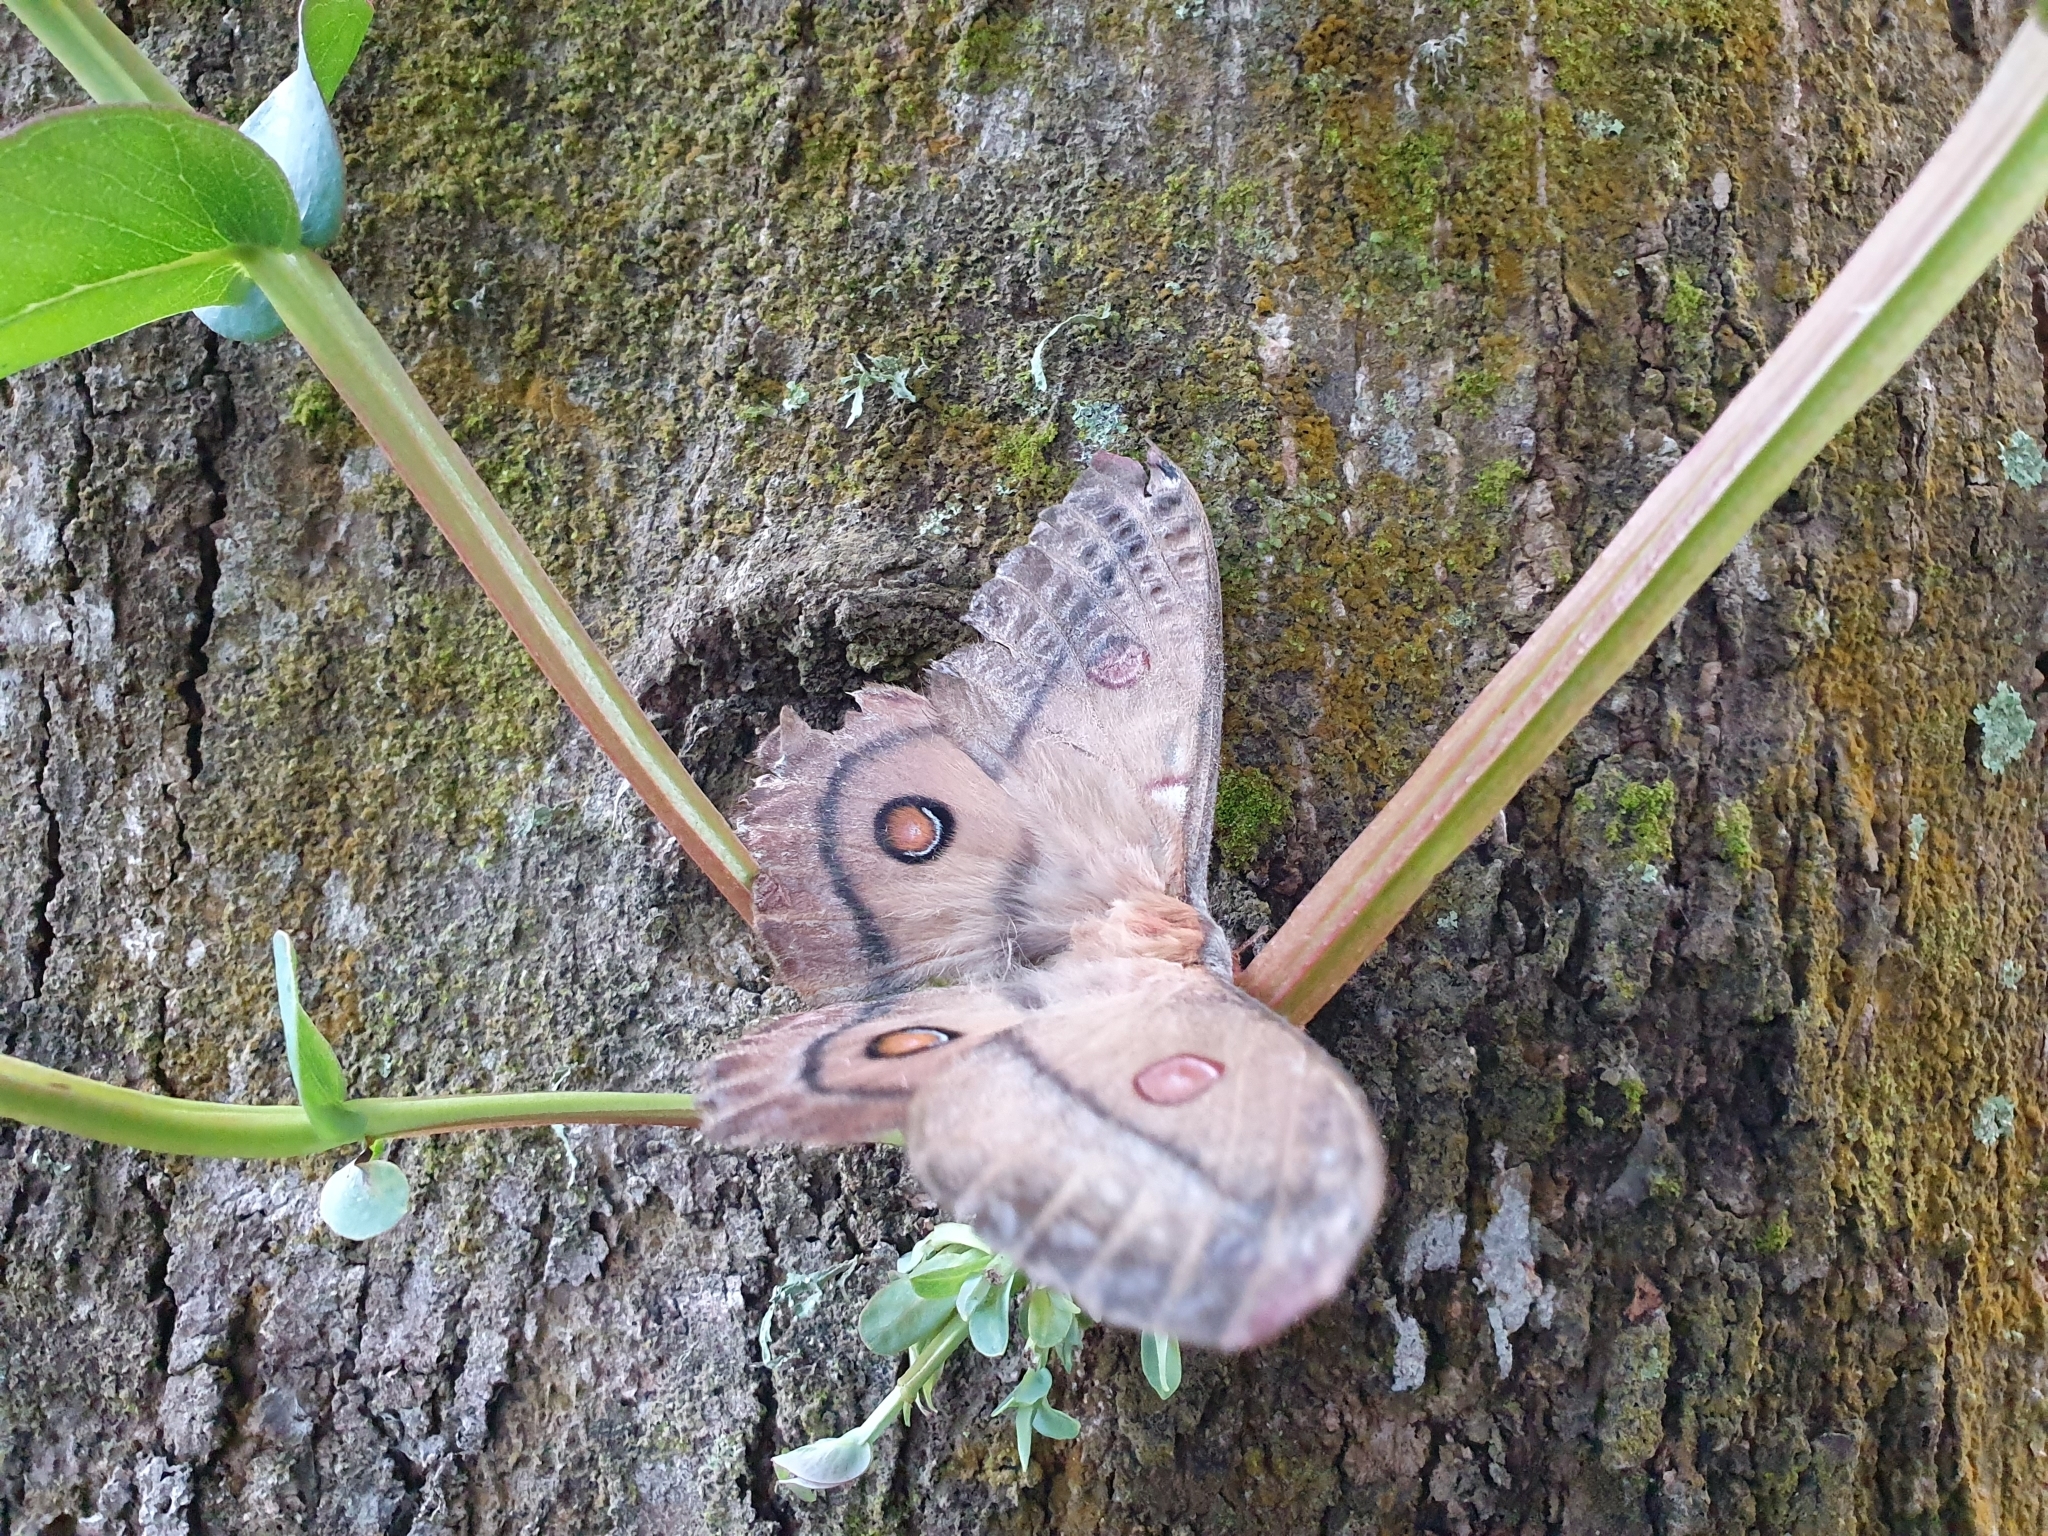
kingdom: Animalia
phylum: Arthropoda
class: Insecta
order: Lepidoptera
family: Saturniidae
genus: Opodiphthera
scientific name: Opodiphthera
